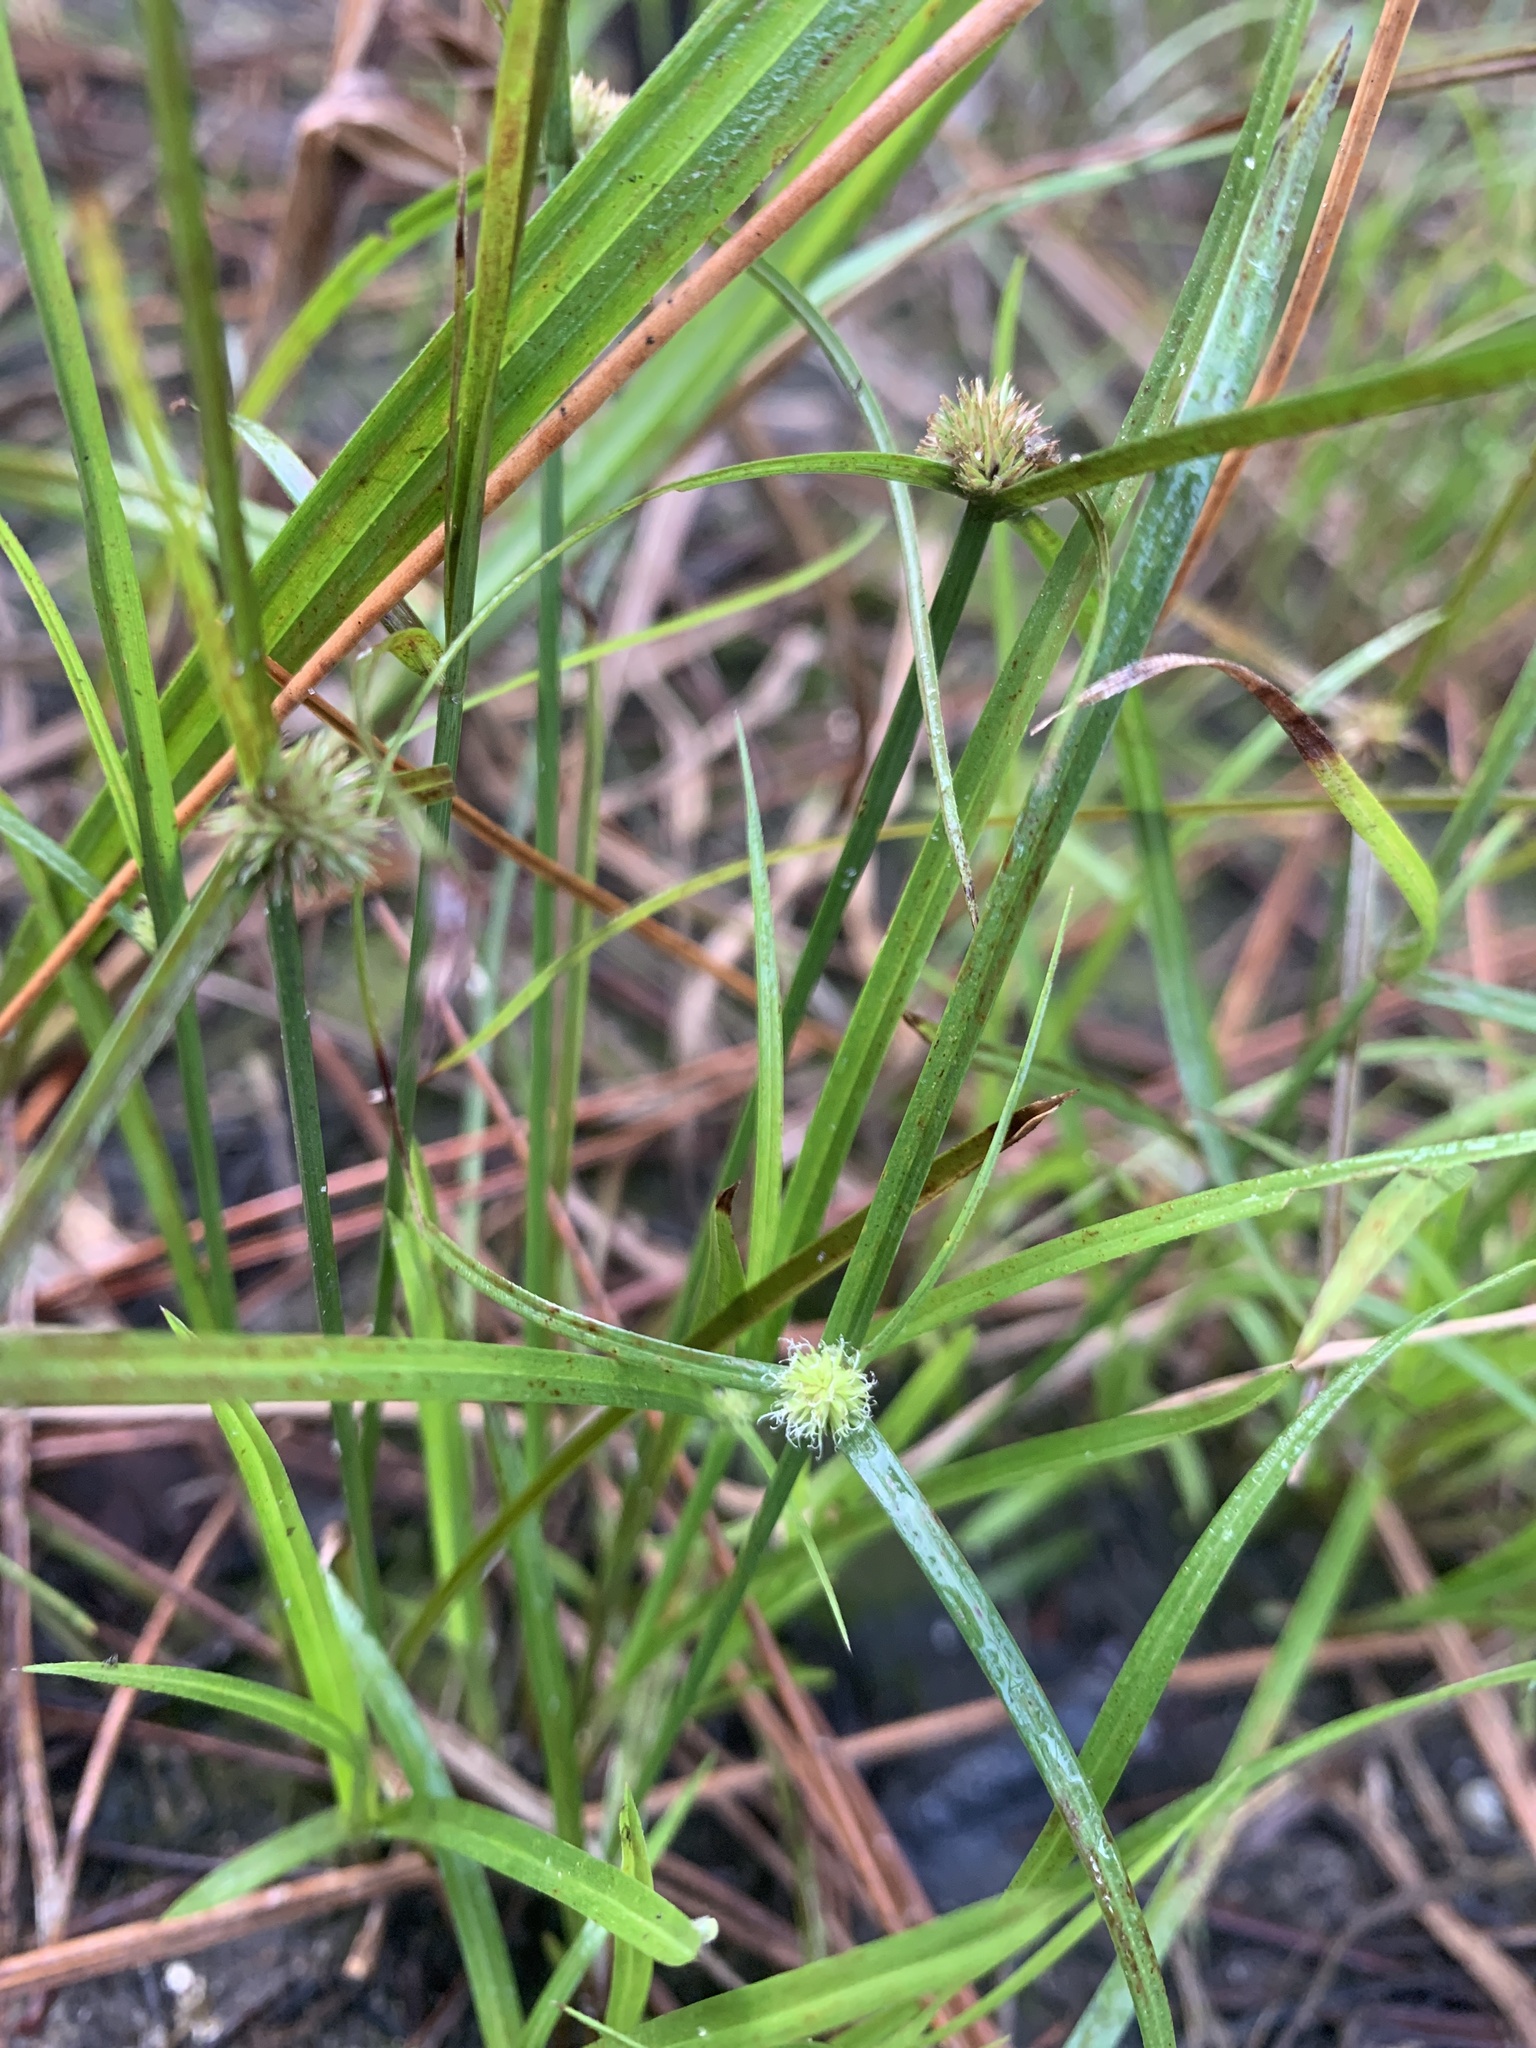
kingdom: Plantae
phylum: Tracheophyta
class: Liliopsida
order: Poales
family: Cyperaceae
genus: Cyperus
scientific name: Cyperus brevifolius
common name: Globe kyllinga
